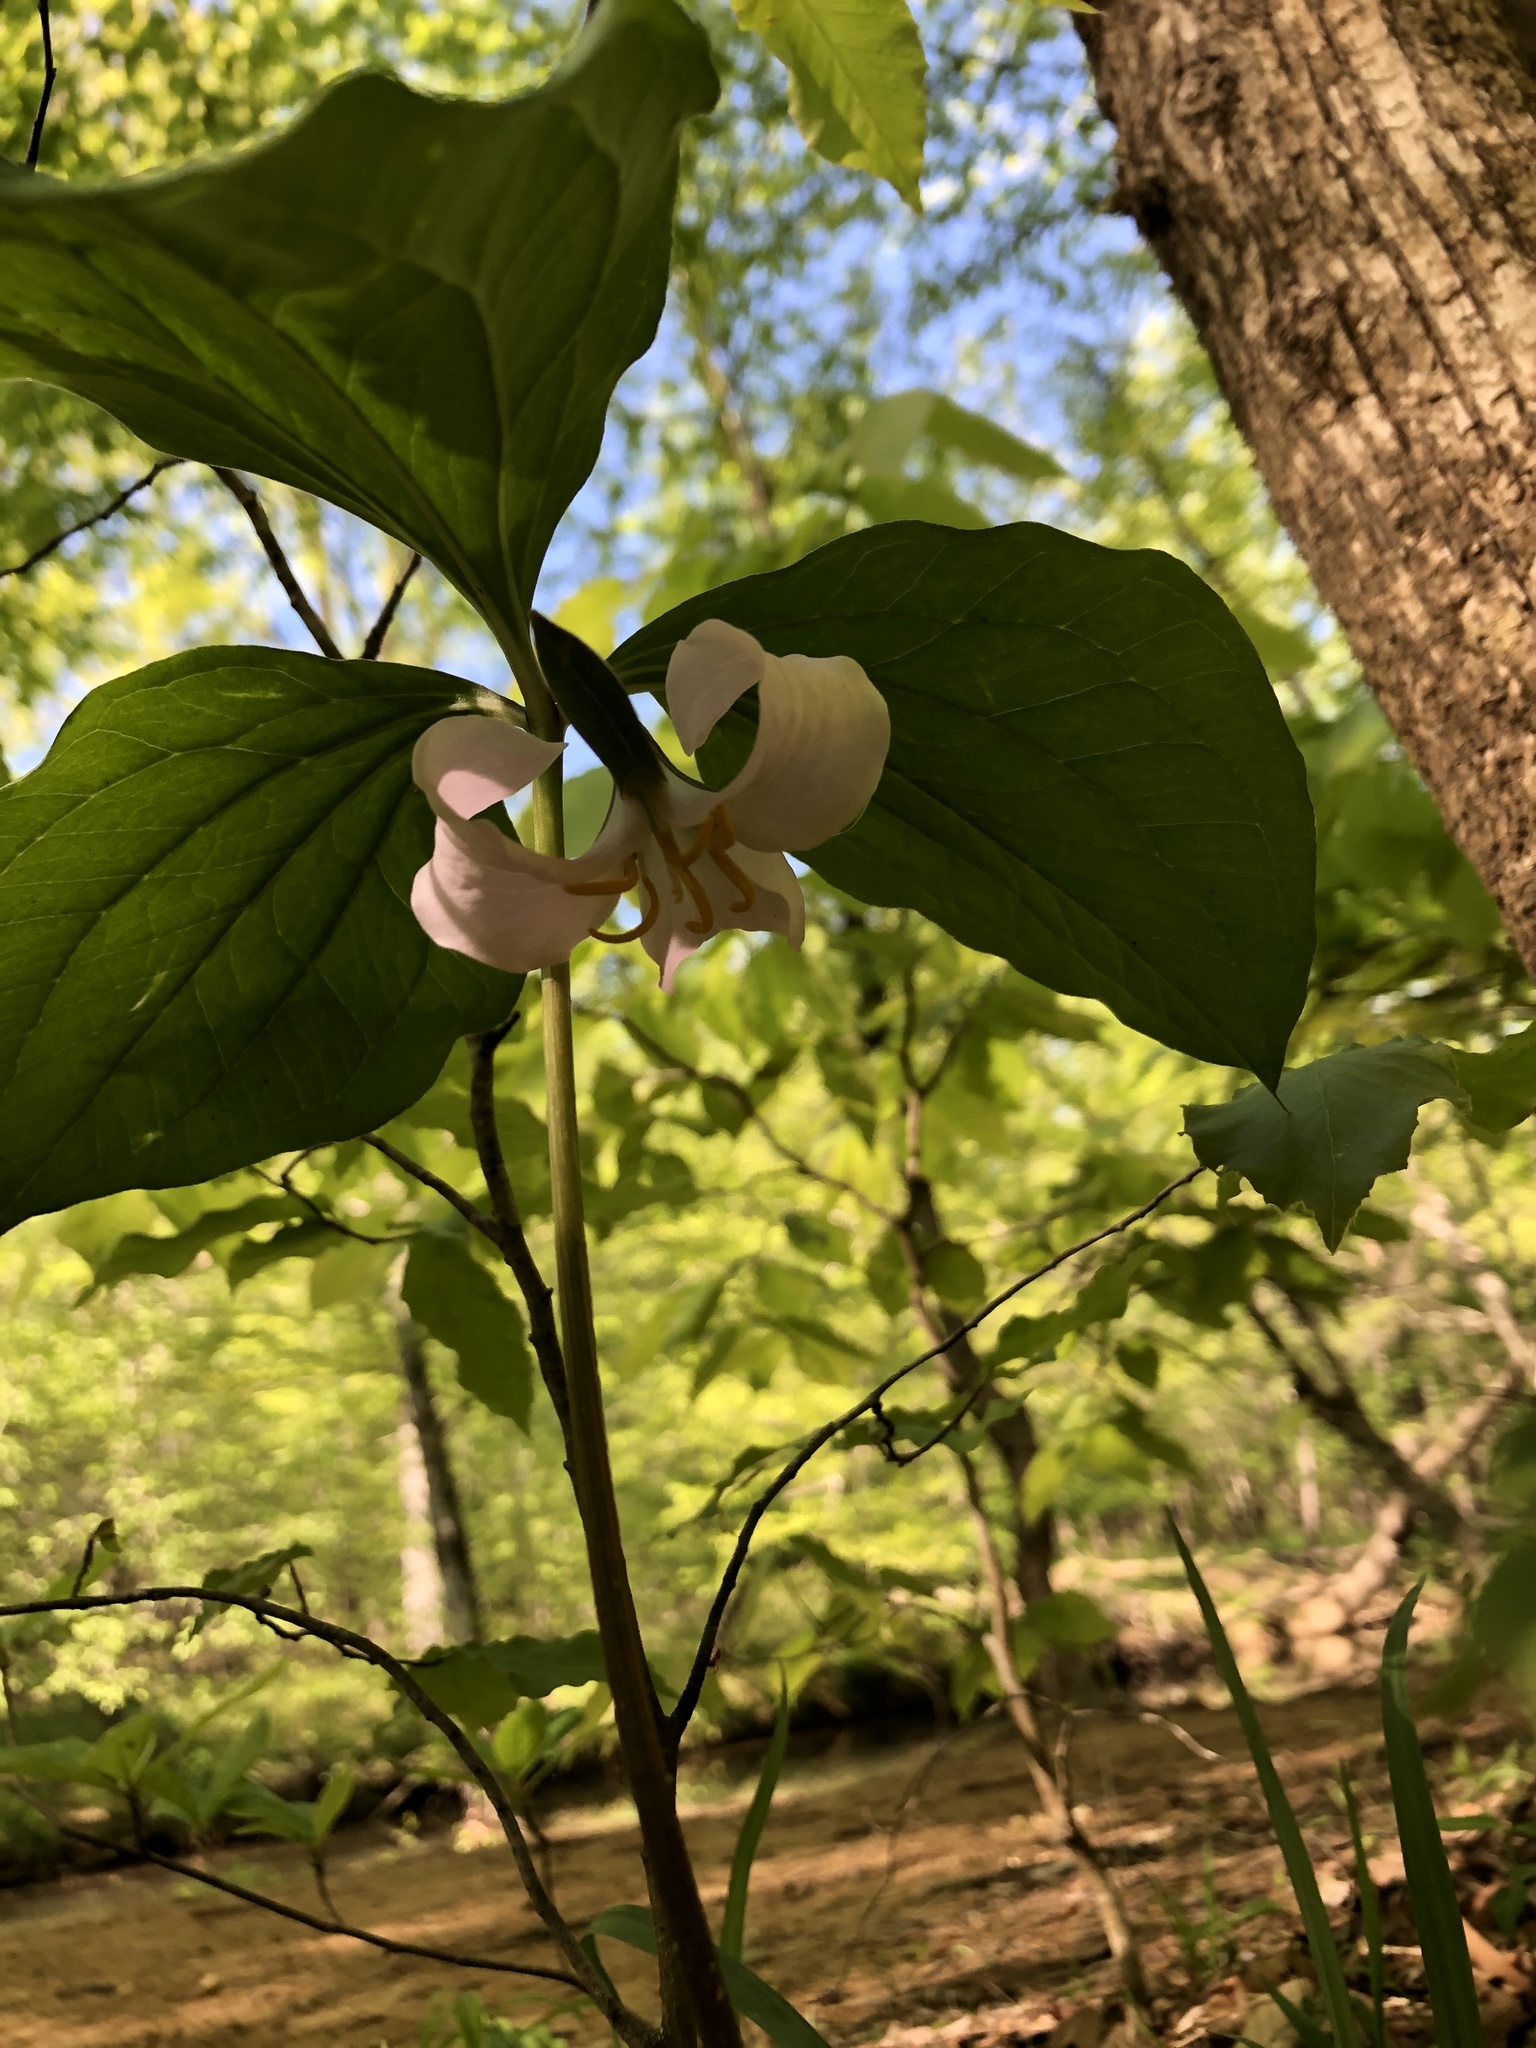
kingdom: Plantae
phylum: Tracheophyta
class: Liliopsida
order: Liliales
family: Melanthiaceae
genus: Trillium
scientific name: Trillium catesbaei
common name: Bashful trillium
